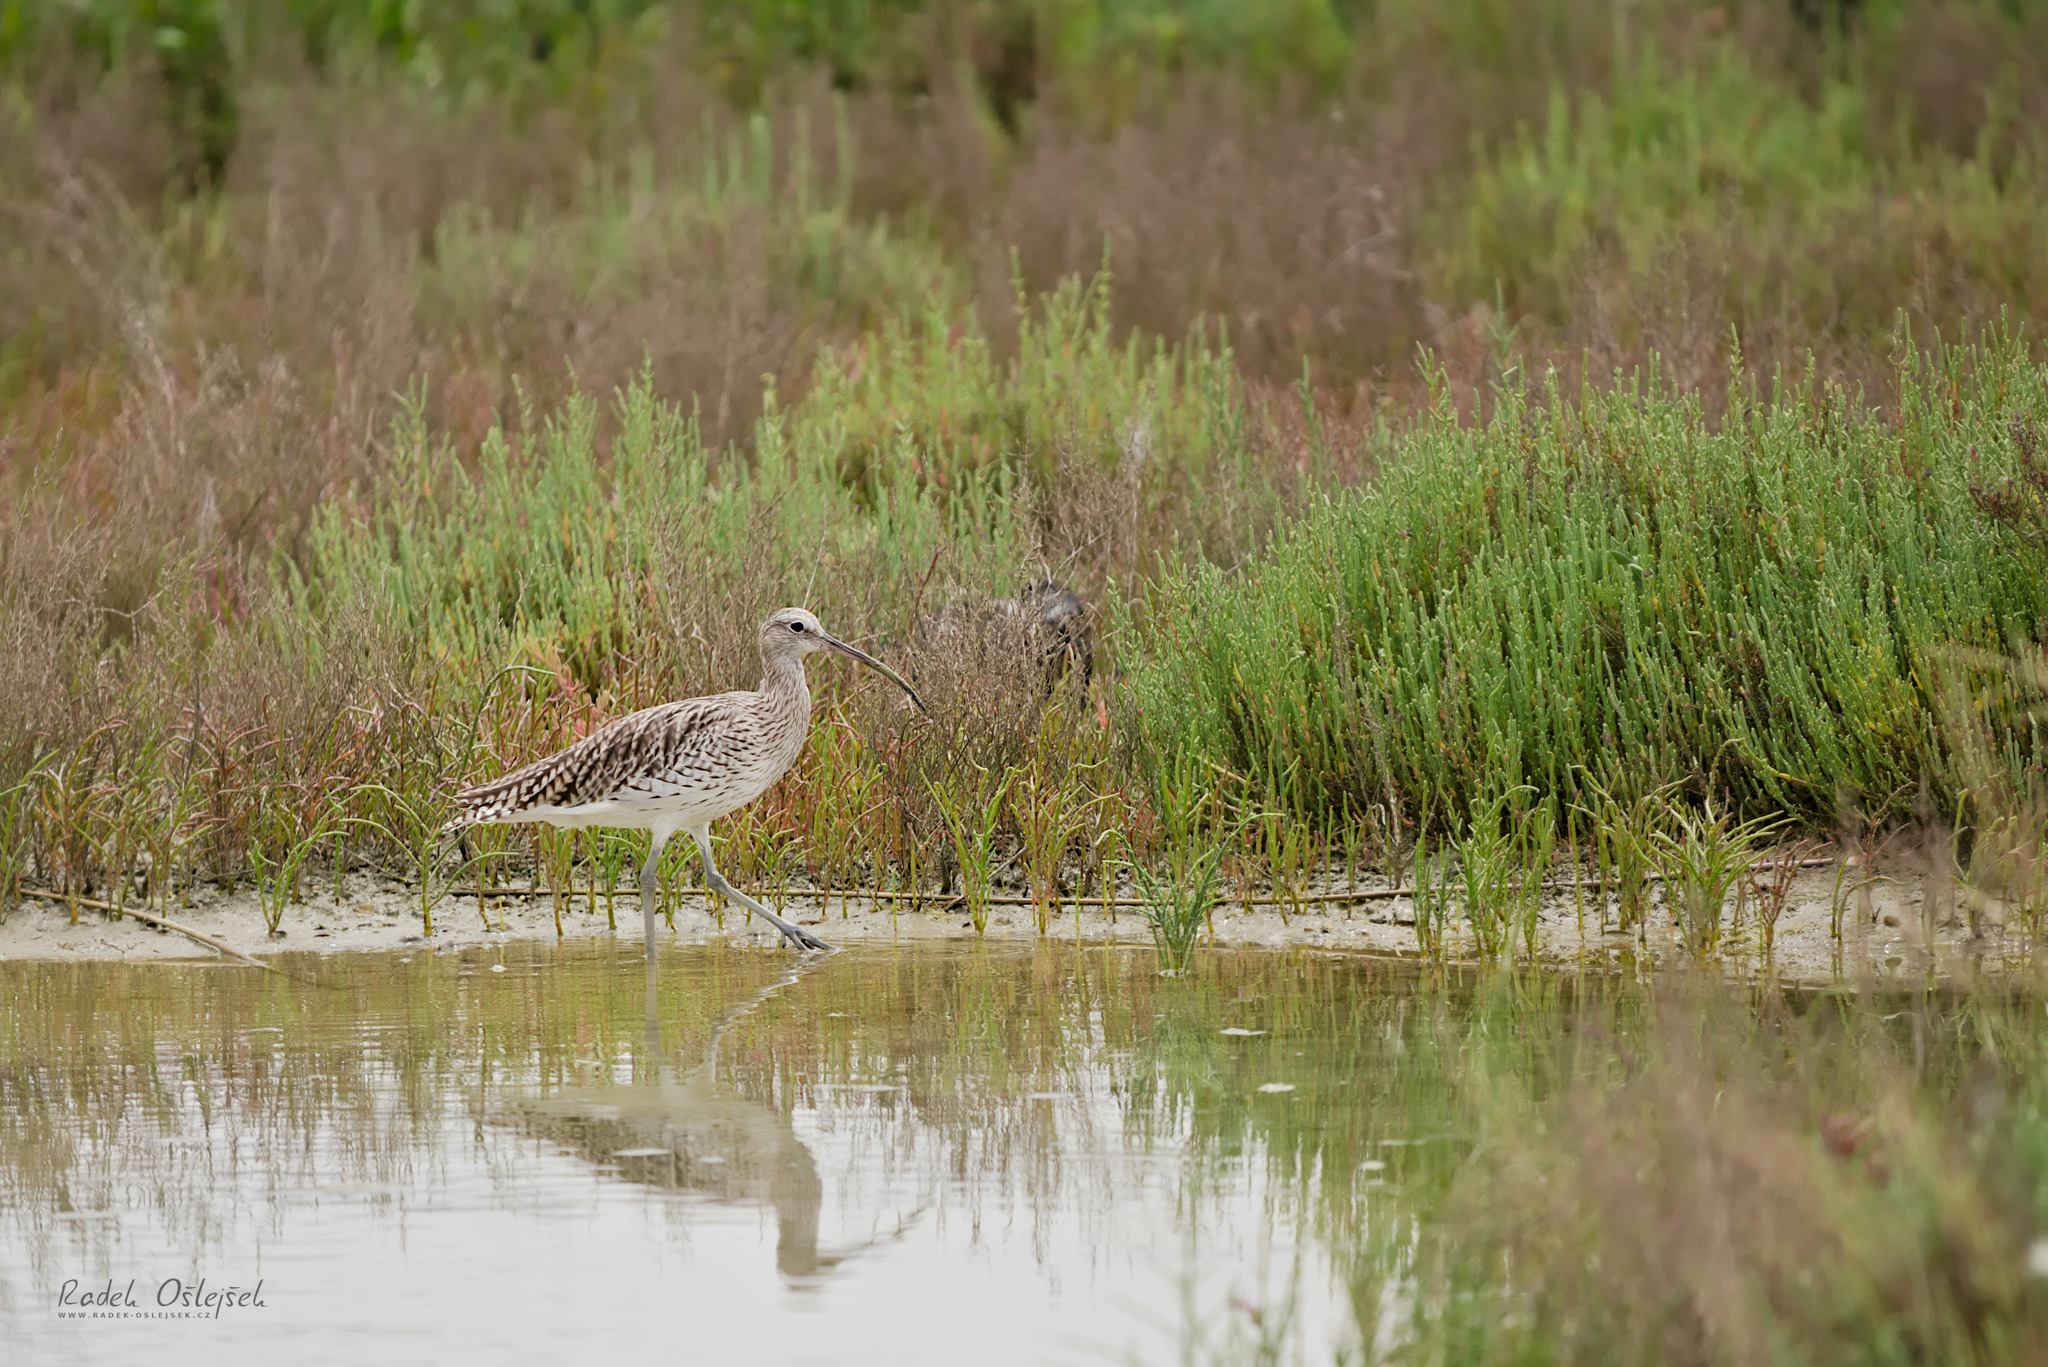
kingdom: Animalia
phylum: Chordata
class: Aves
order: Charadriiformes
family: Scolopacidae
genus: Numenius
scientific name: Numenius arquata
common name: Eurasian curlew
